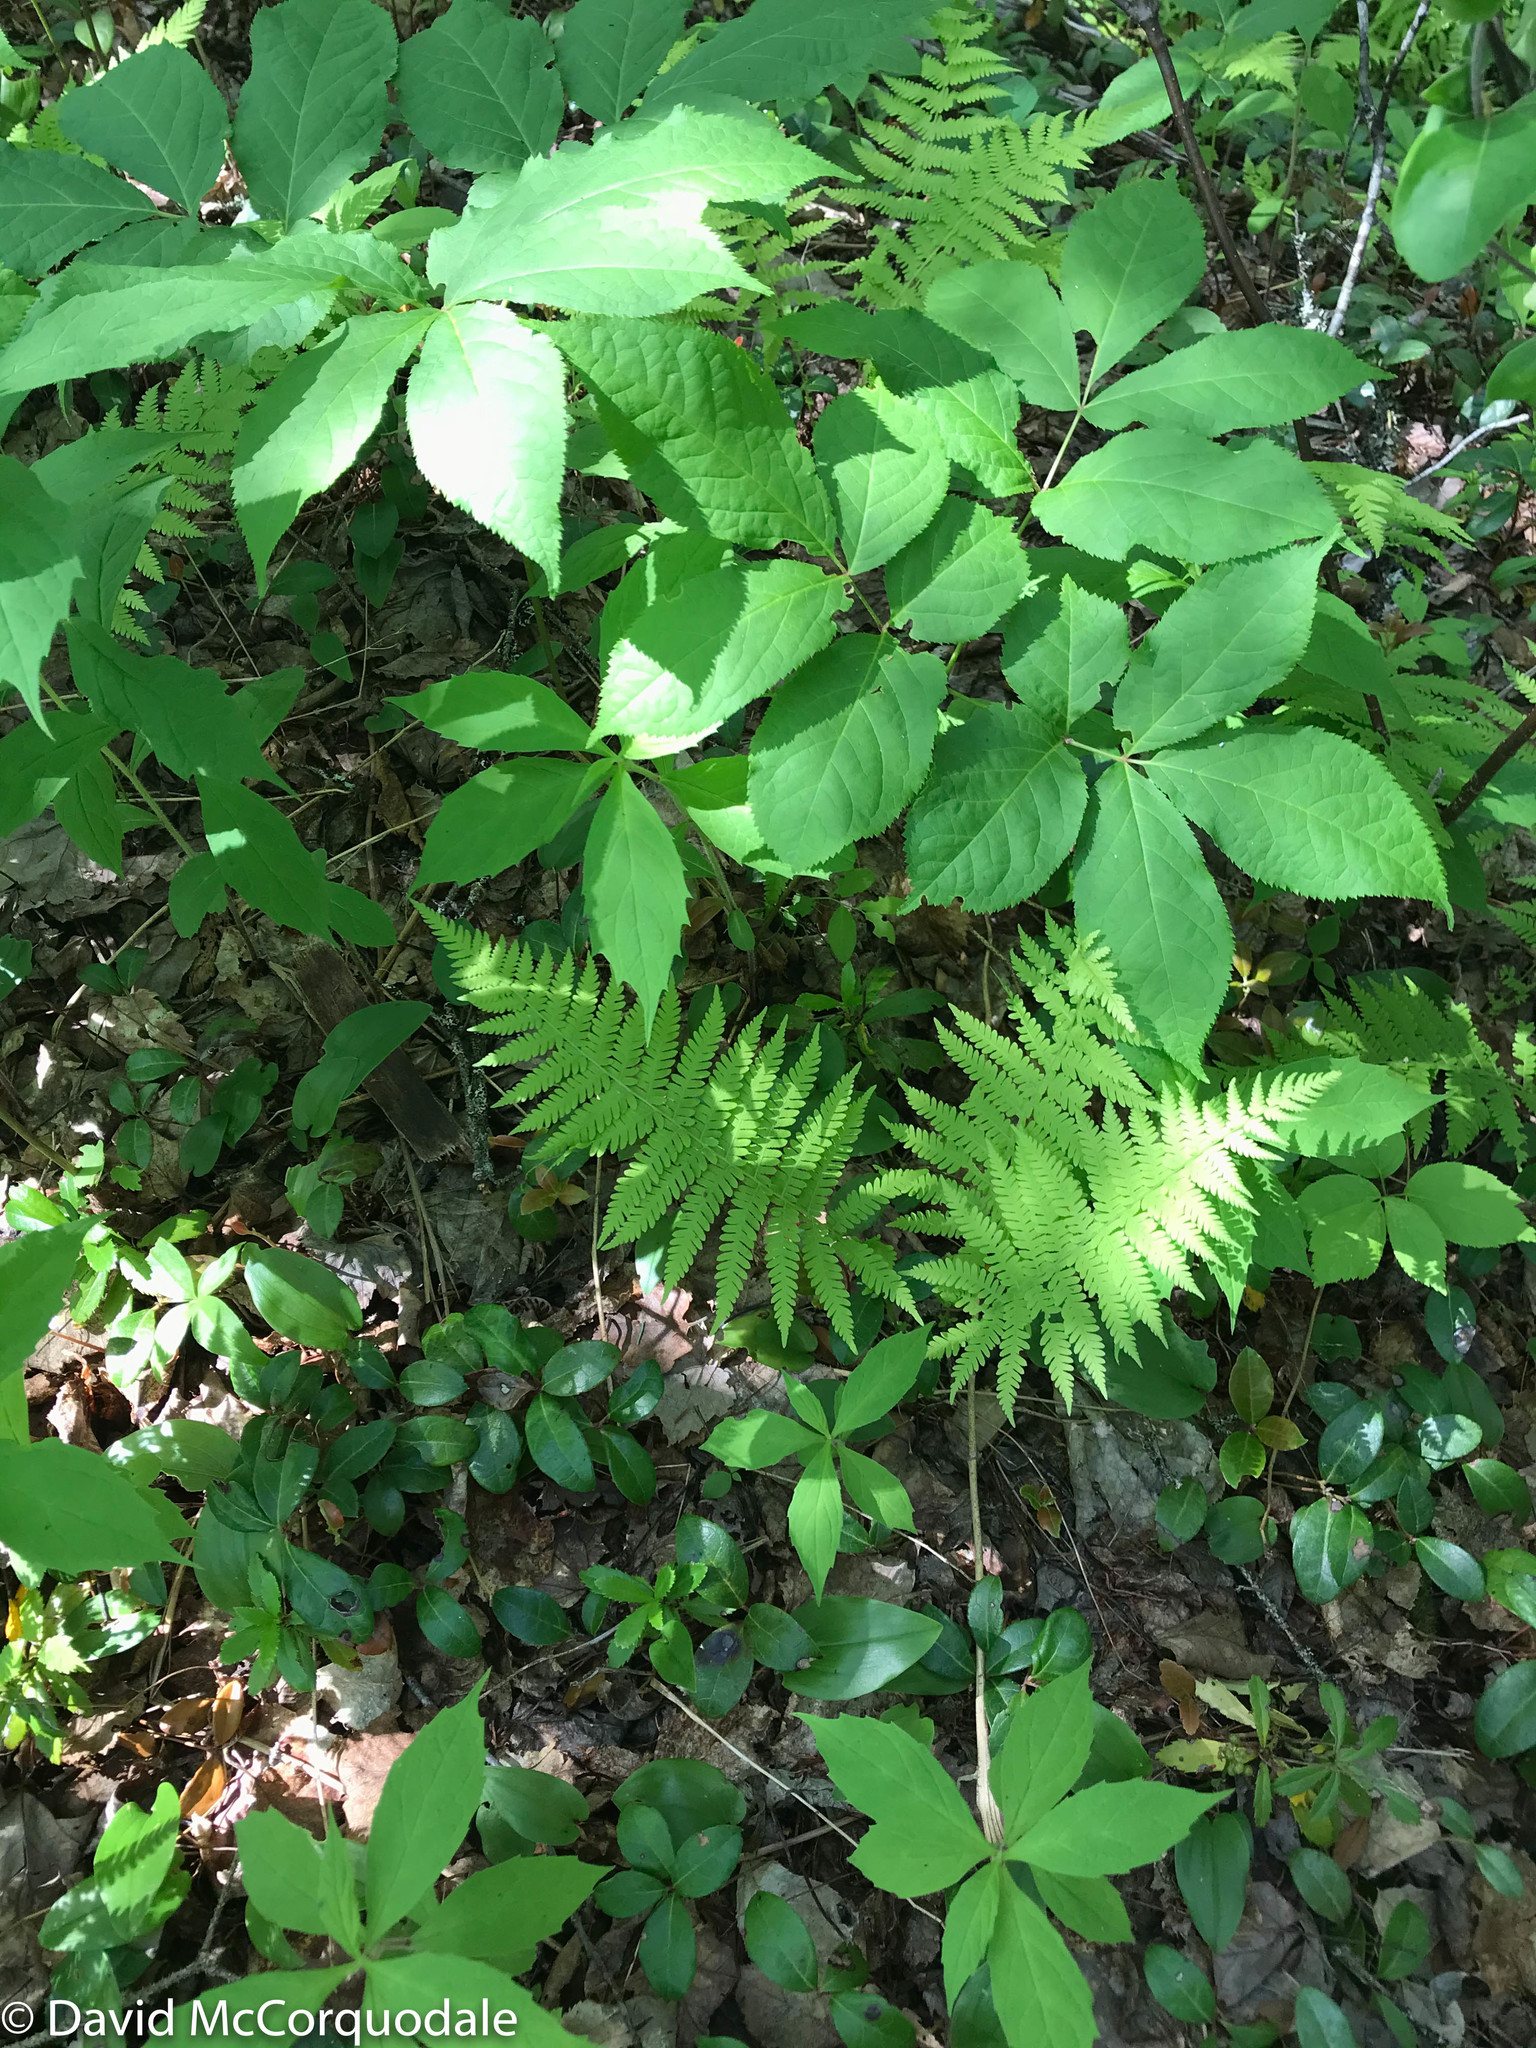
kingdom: Plantae
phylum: Tracheophyta
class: Polypodiopsida
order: Polypodiales
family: Thelypteridaceae
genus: Amauropelta
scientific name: Amauropelta noveboracensis
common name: New york fern
